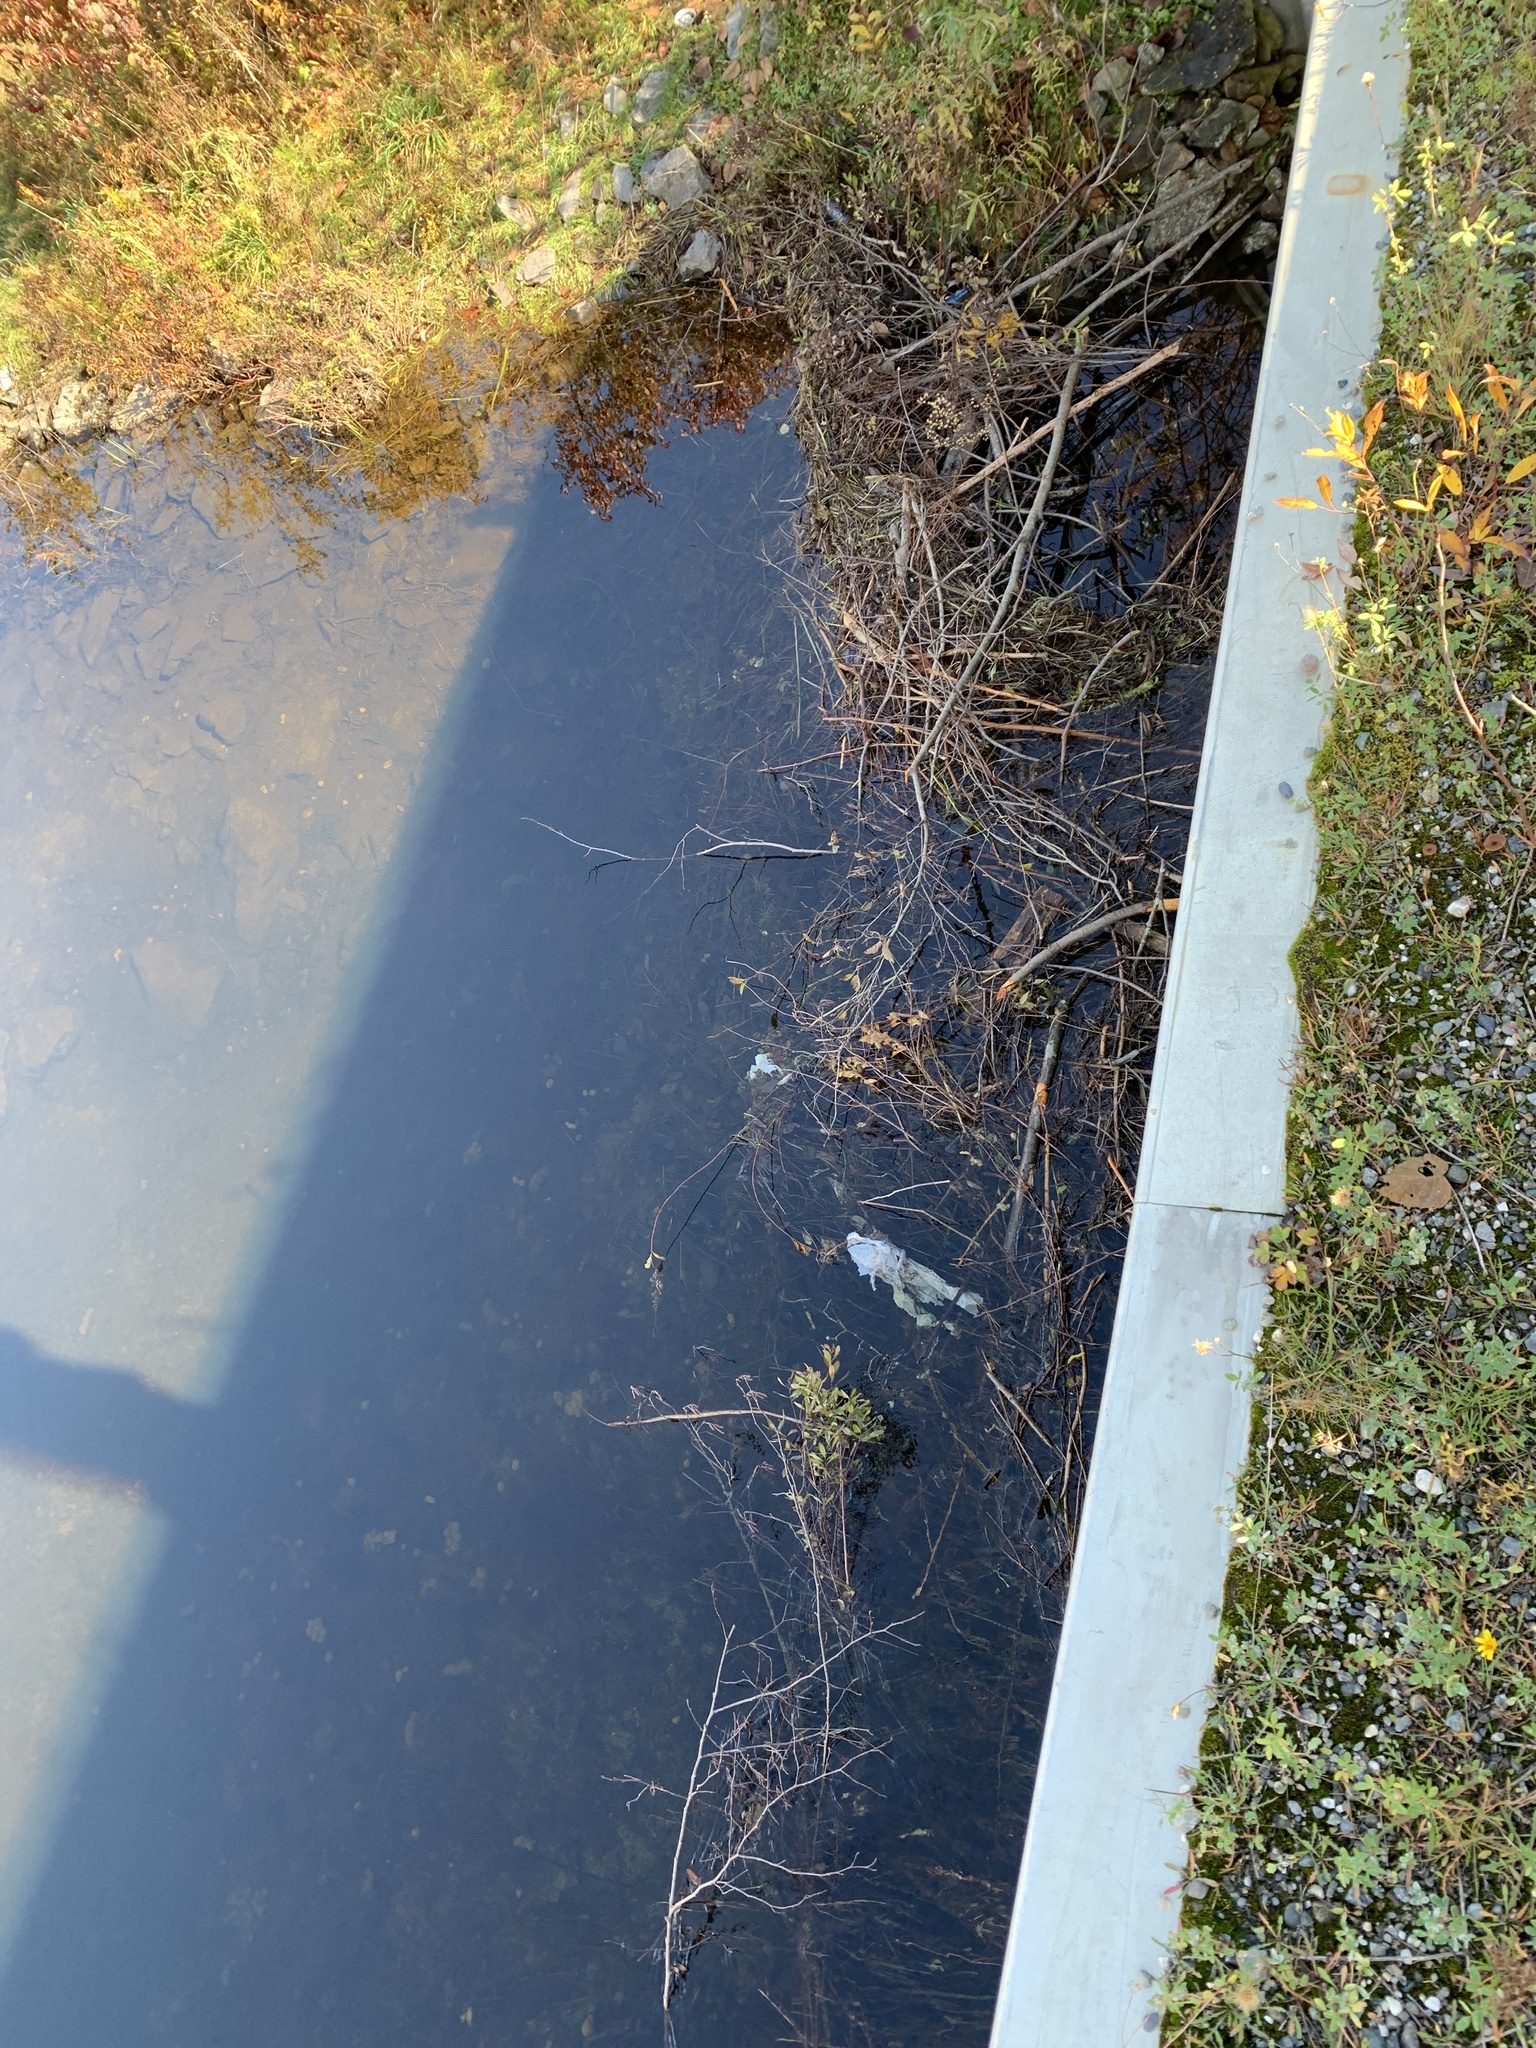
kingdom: Animalia
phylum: Chordata
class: Mammalia
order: Rodentia
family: Castoridae
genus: Castor
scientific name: Castor canadensis
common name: American beaver
